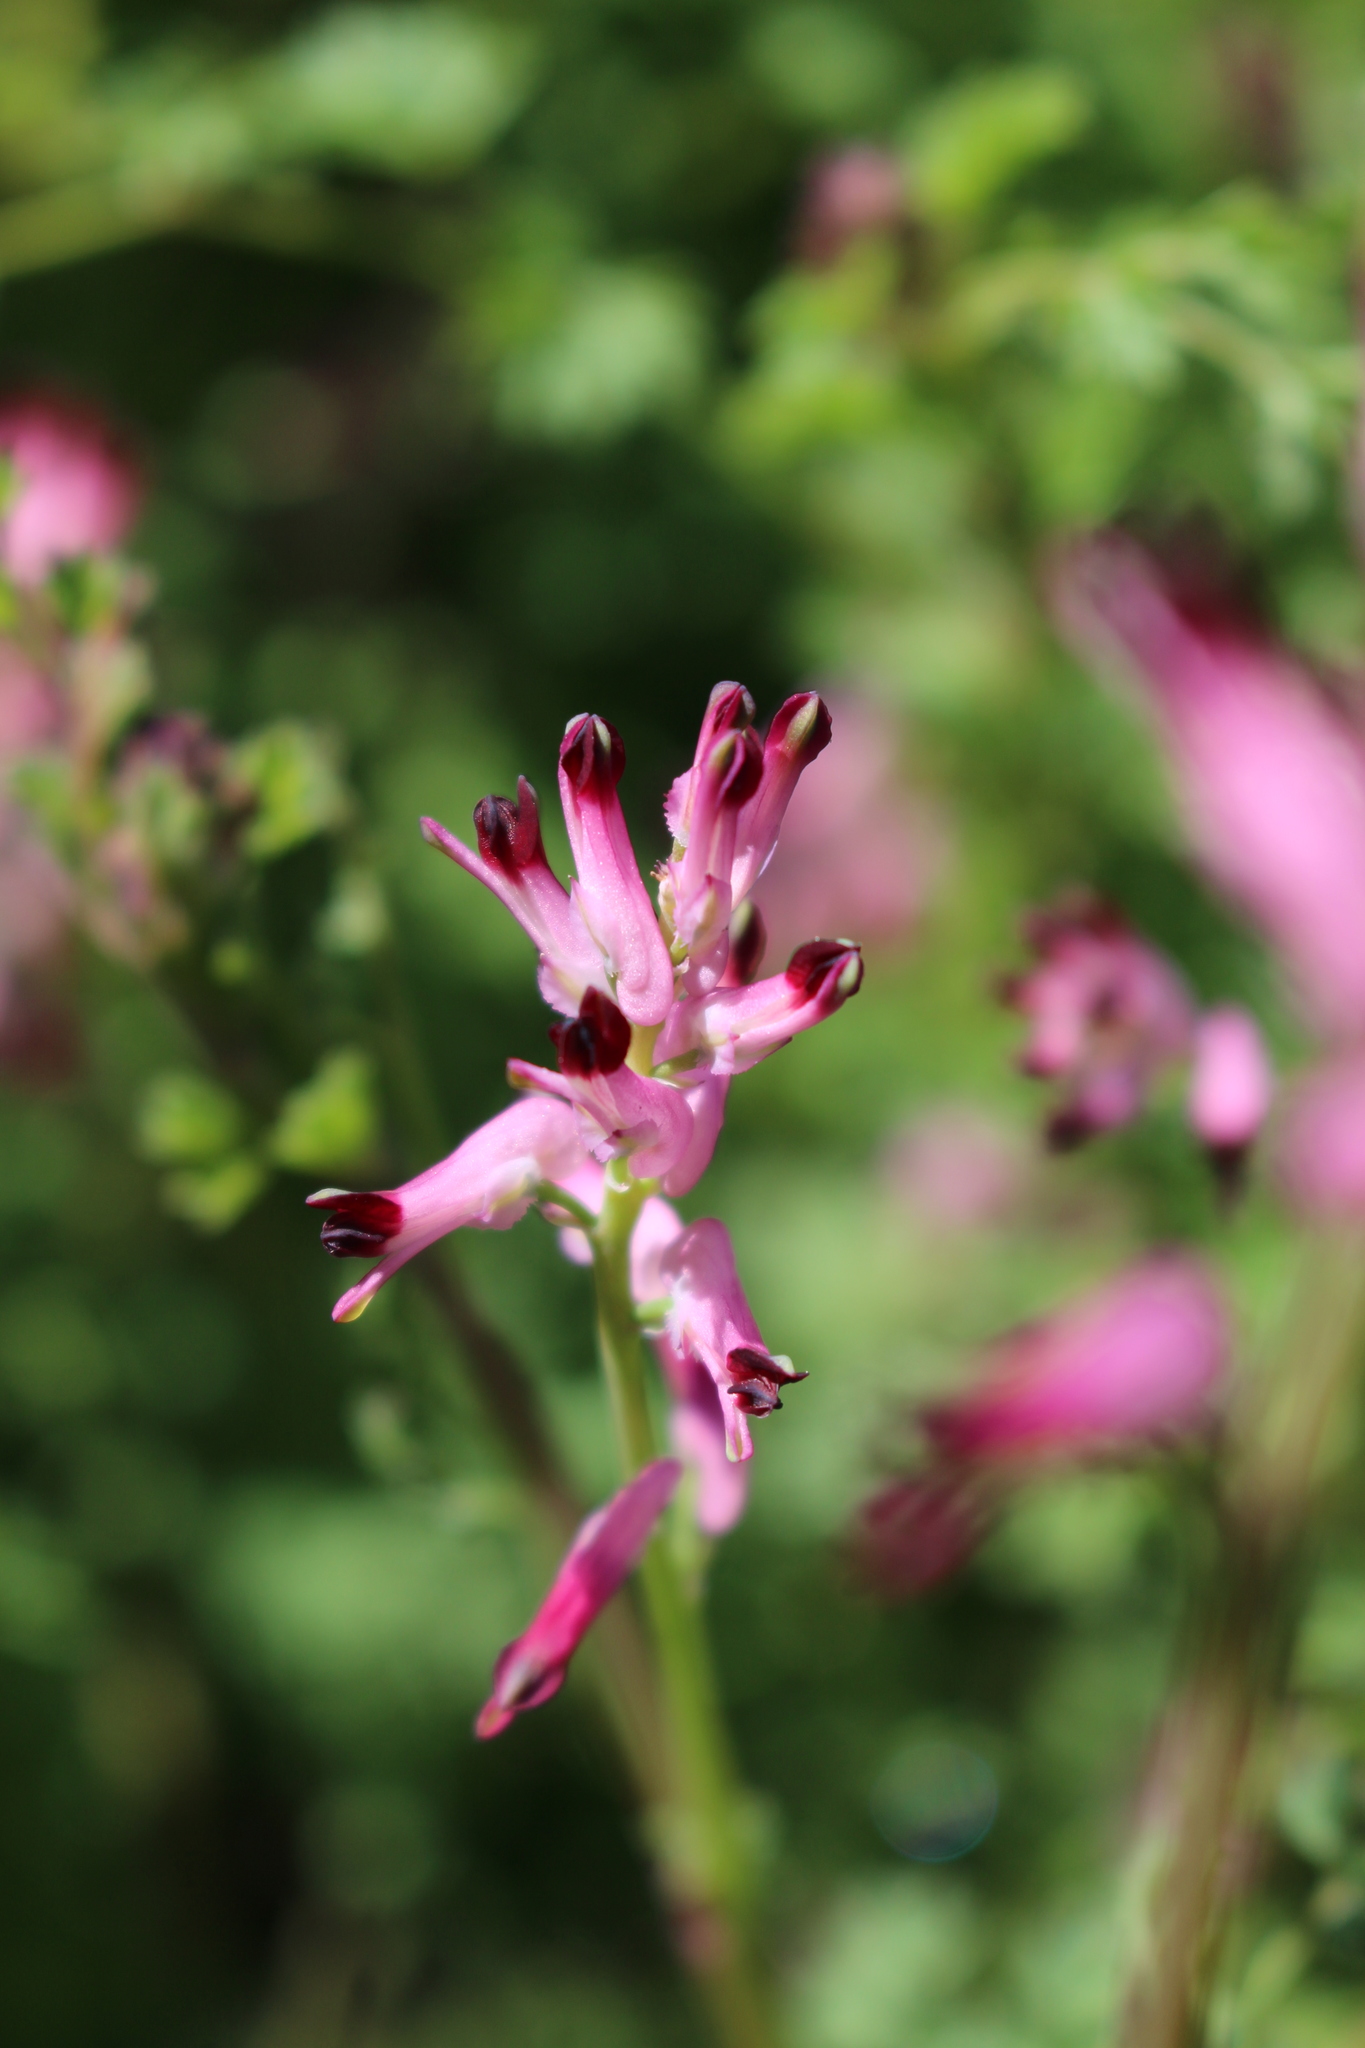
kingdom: Plantae
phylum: Tracheophyta
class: Magnoliopsida
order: Ranunculales
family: Papaveraceae
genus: Fumaria
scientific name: Fumaria muralis
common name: Common ramping-fumitory
